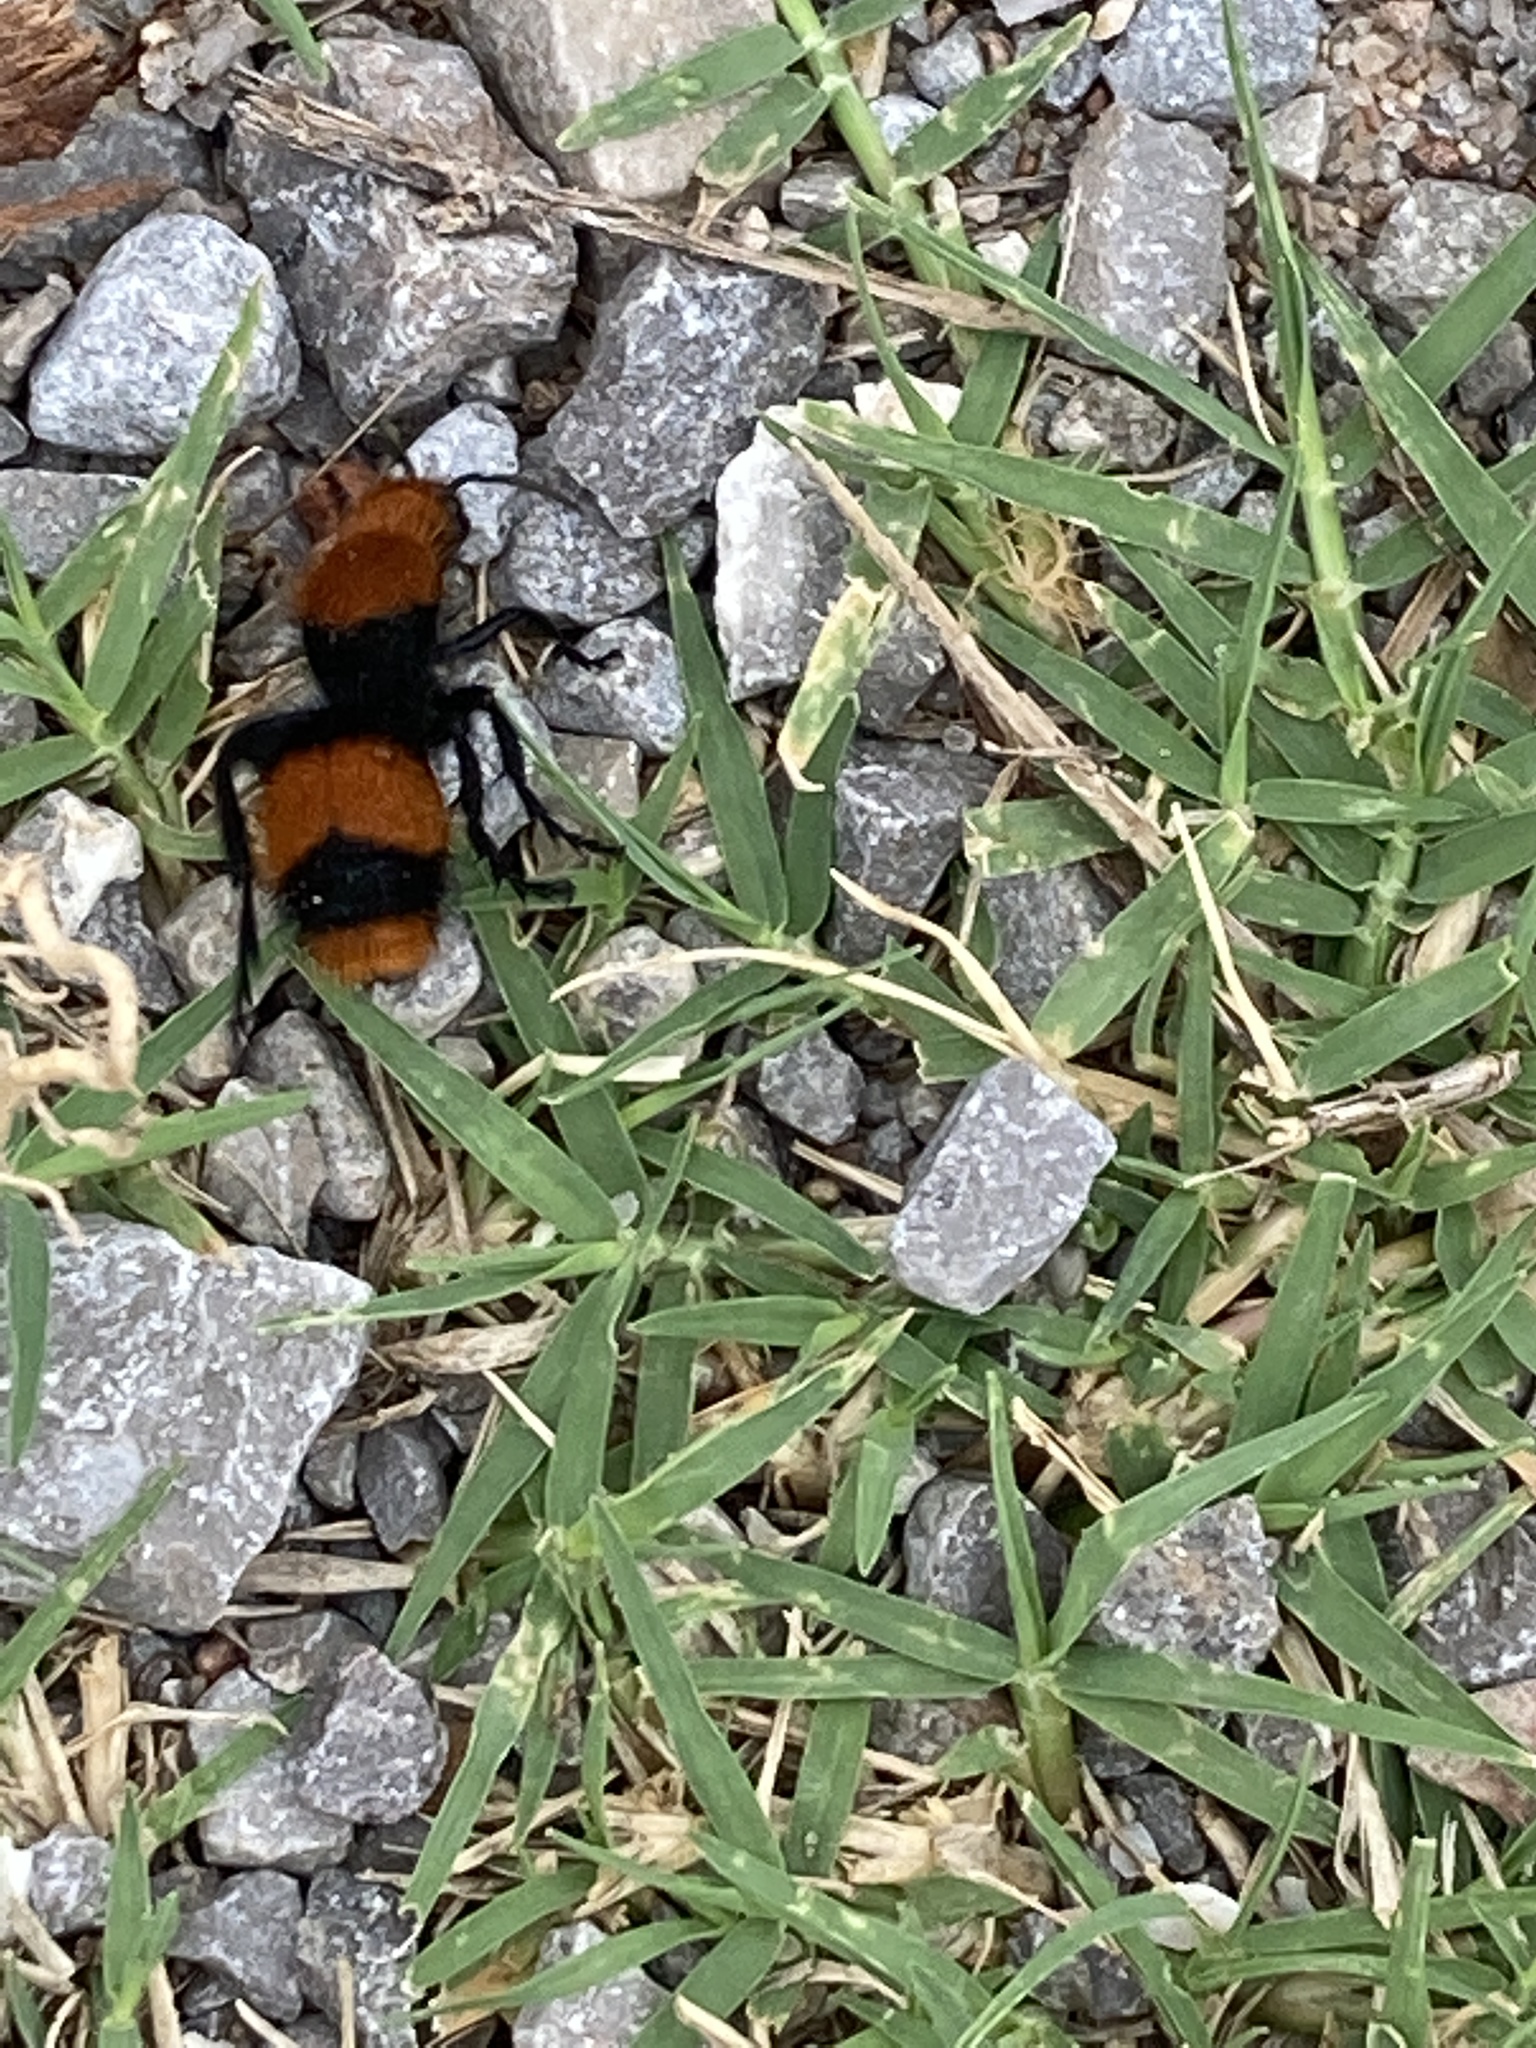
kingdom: Animalia
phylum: Arthropoda
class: Insecta
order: Hymenoptera
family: Mutillidae
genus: Dasymutilla
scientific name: Dasymutilla occidentalis
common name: Common eastern velvet ant
